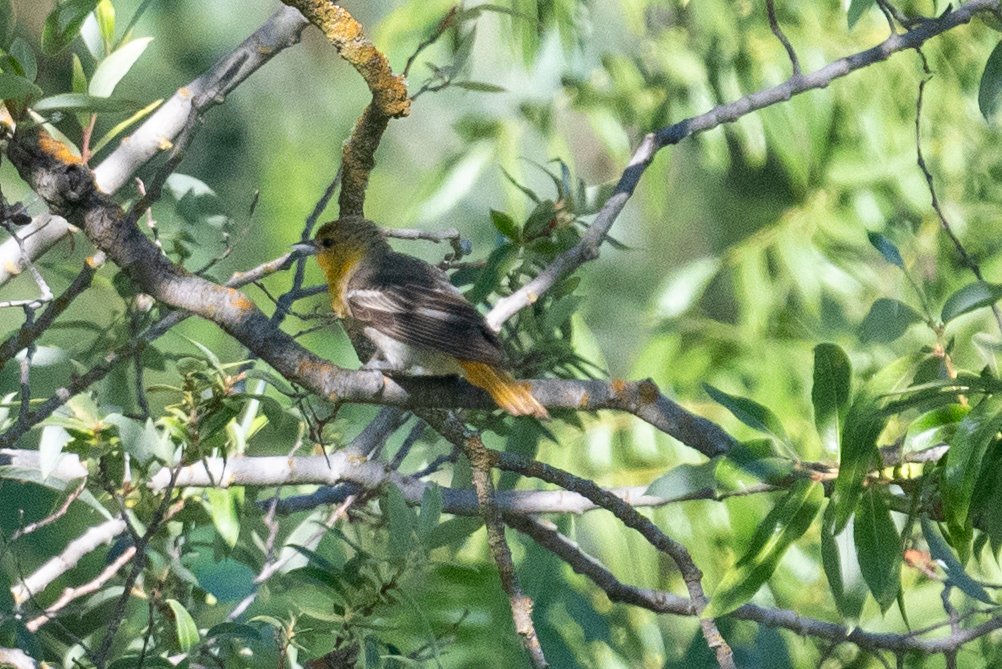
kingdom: Animalia
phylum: Chordata
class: Aves
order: Passeriformes
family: Icteridae
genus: Icterus
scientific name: Icterus bullockii
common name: Bullock's oriole
